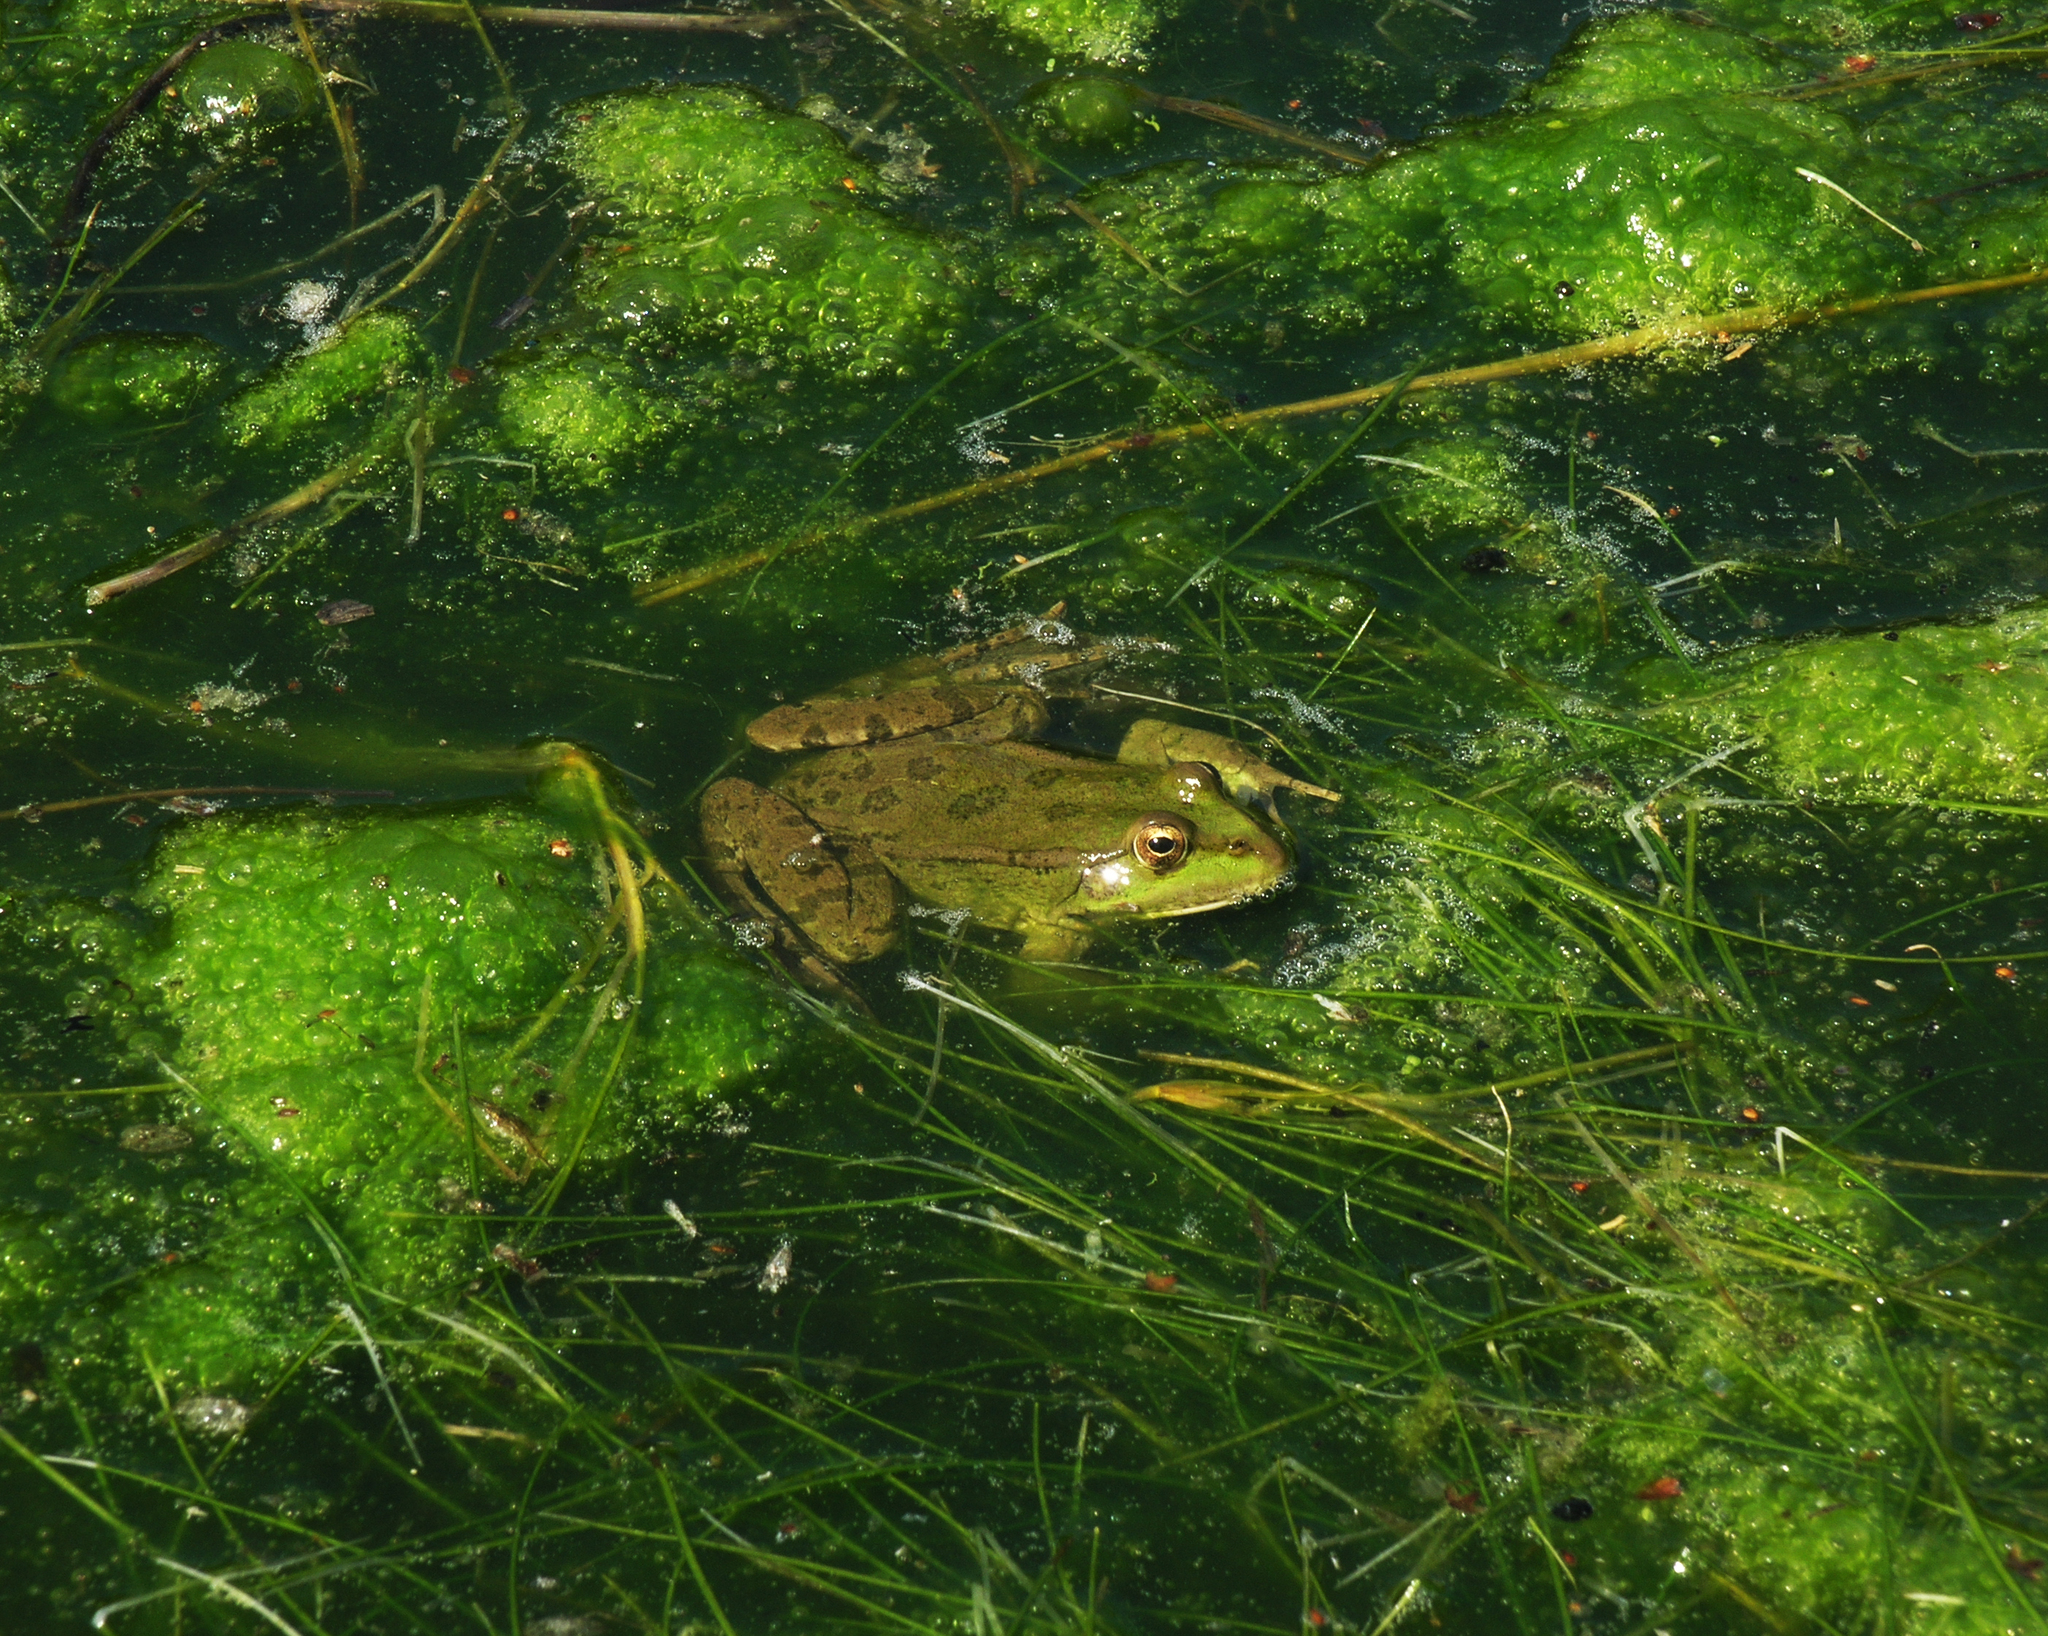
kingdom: Animalia
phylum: Chordata
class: Amphibia
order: Anura
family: Ranidae
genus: Pelophylax
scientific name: Pelophylax
